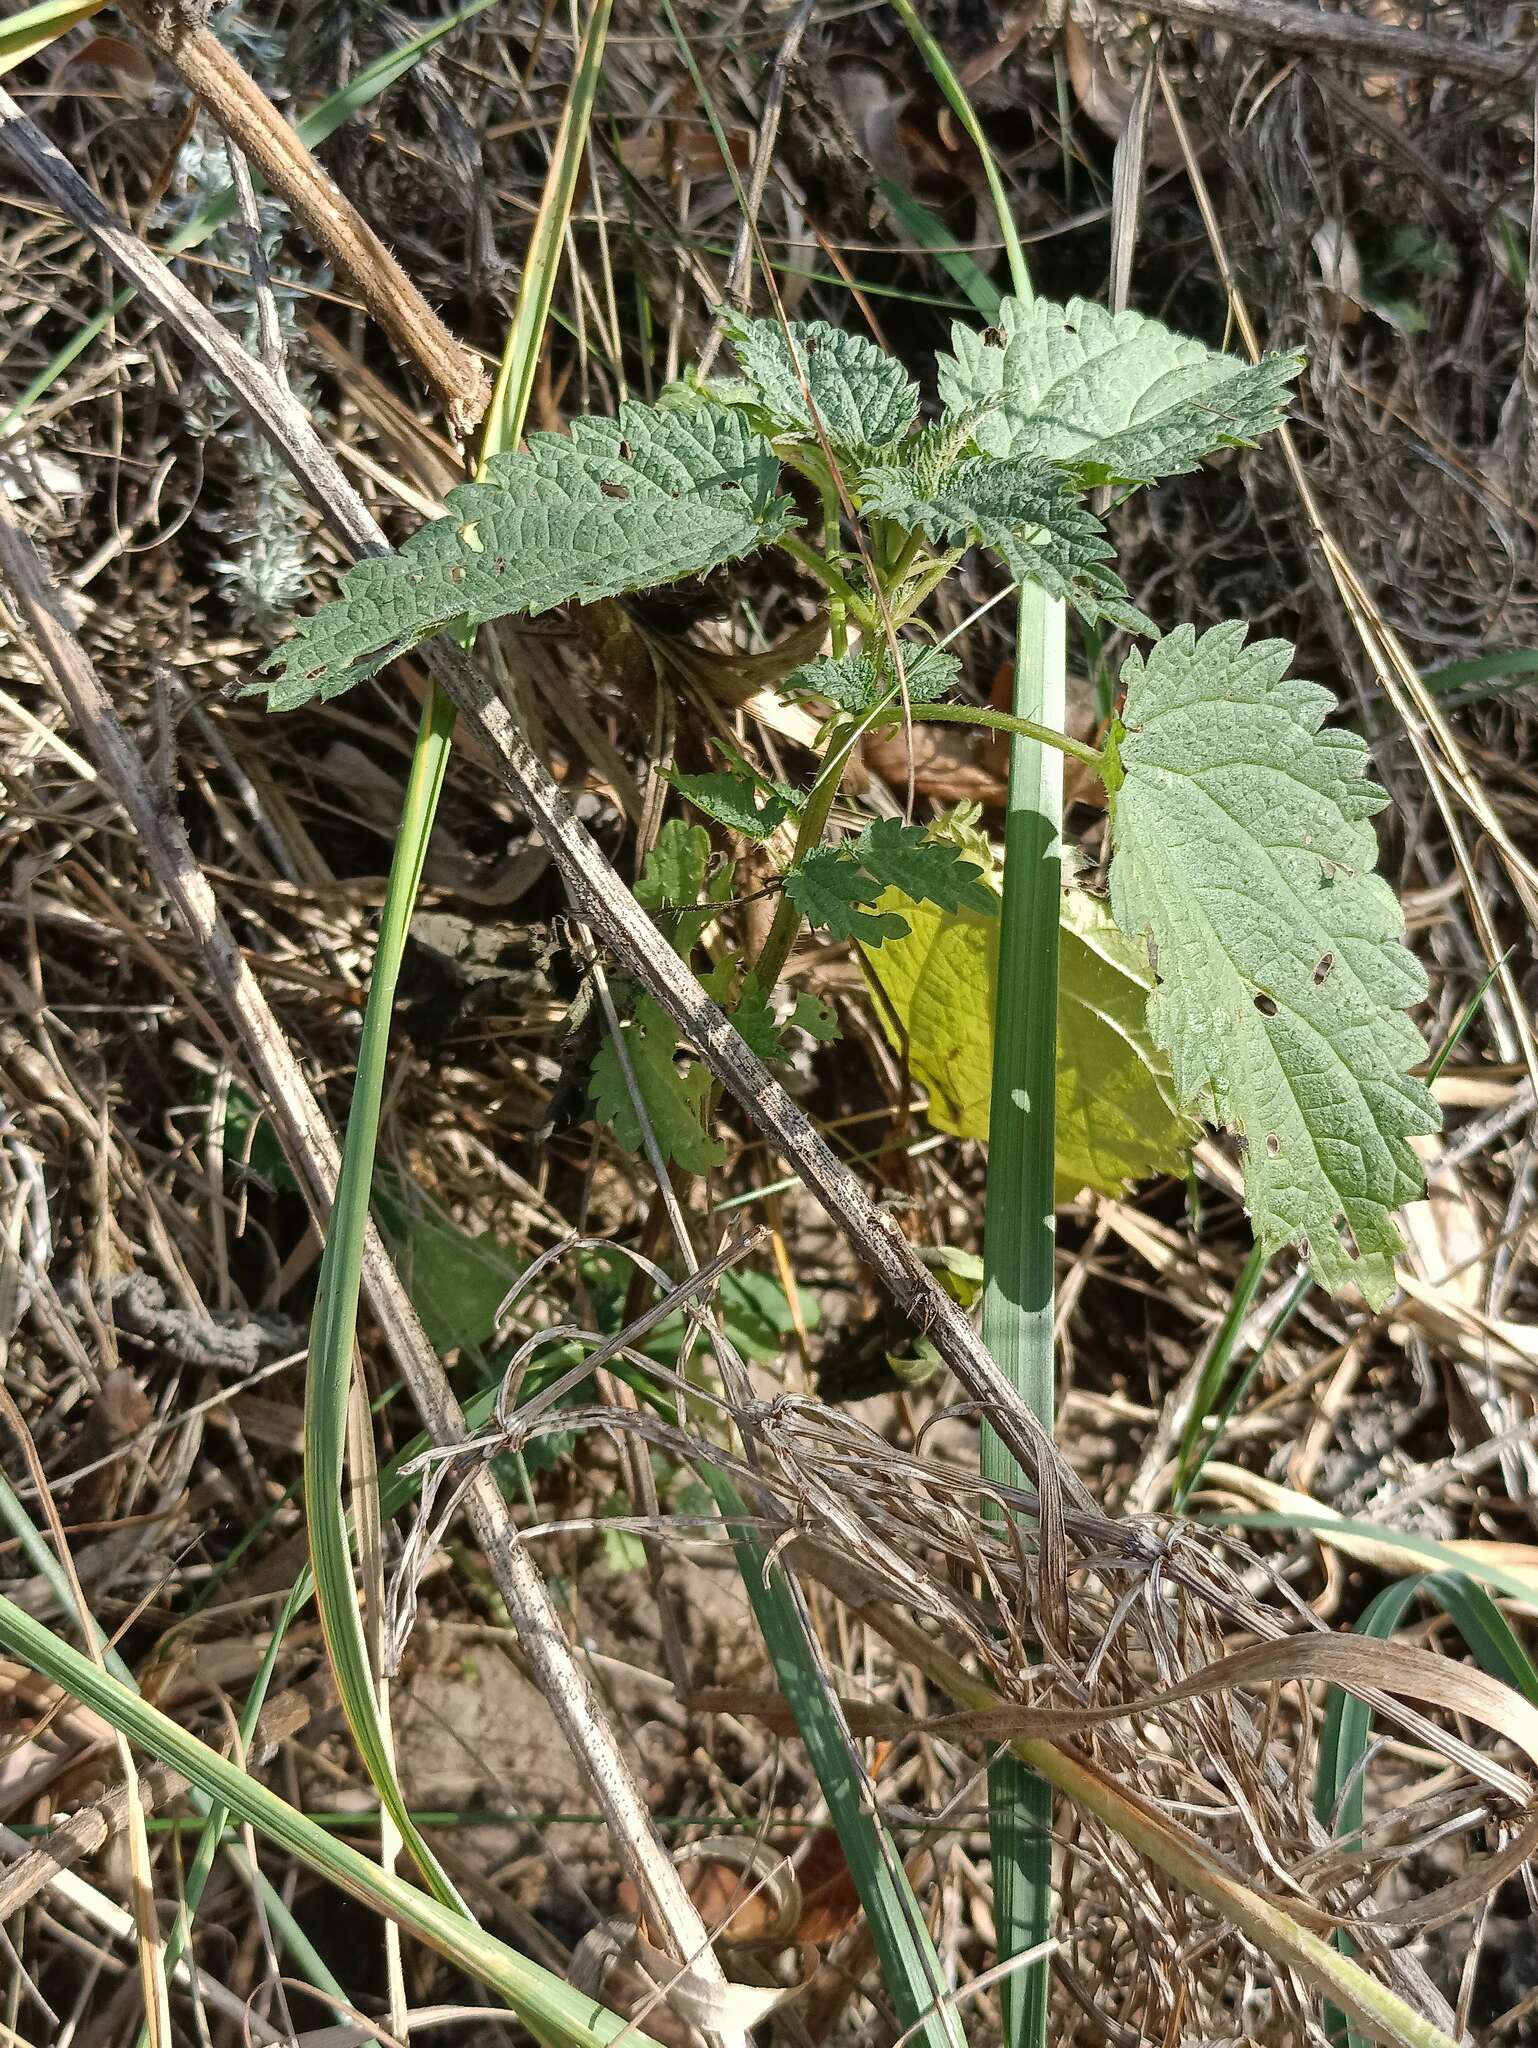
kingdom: Plantae
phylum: Tracheophyta
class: Magnoliopsida
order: Rosales
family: Urticaceae
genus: Urtica
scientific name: Urtica dioica
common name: Common nettle
